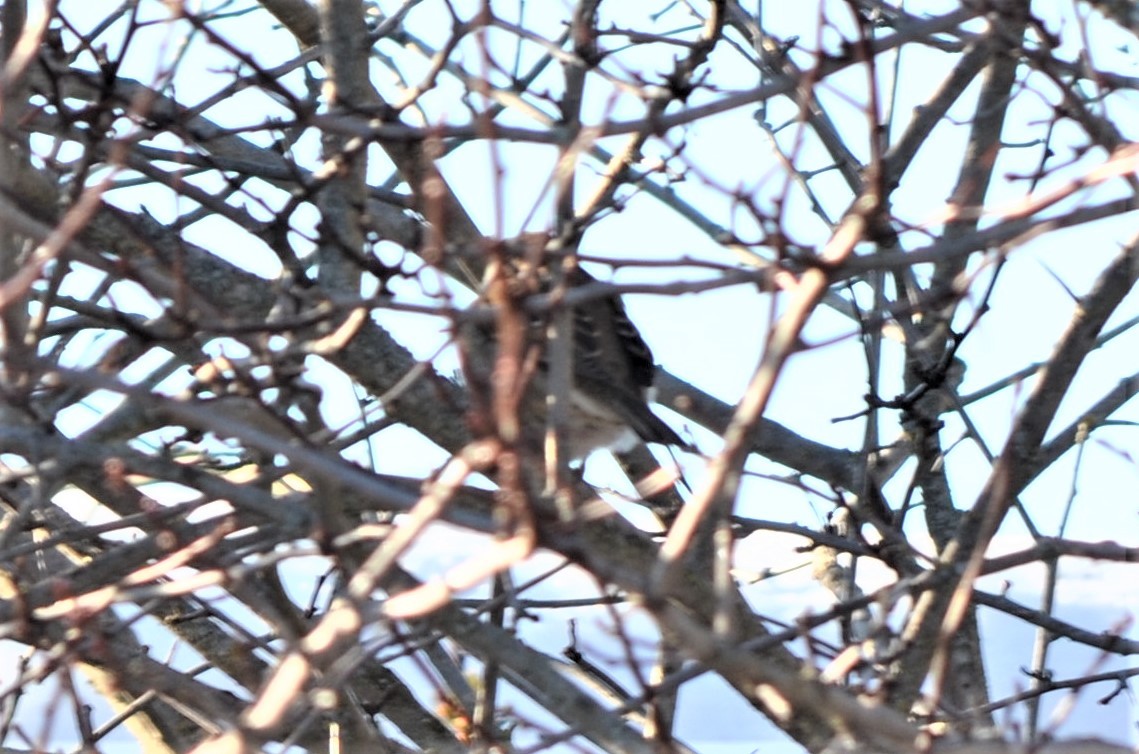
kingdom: Animalia
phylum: Chordata
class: Aves
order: Passeriformes
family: Passeridae
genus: Passer
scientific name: Passer domesticus
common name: House sparrow
